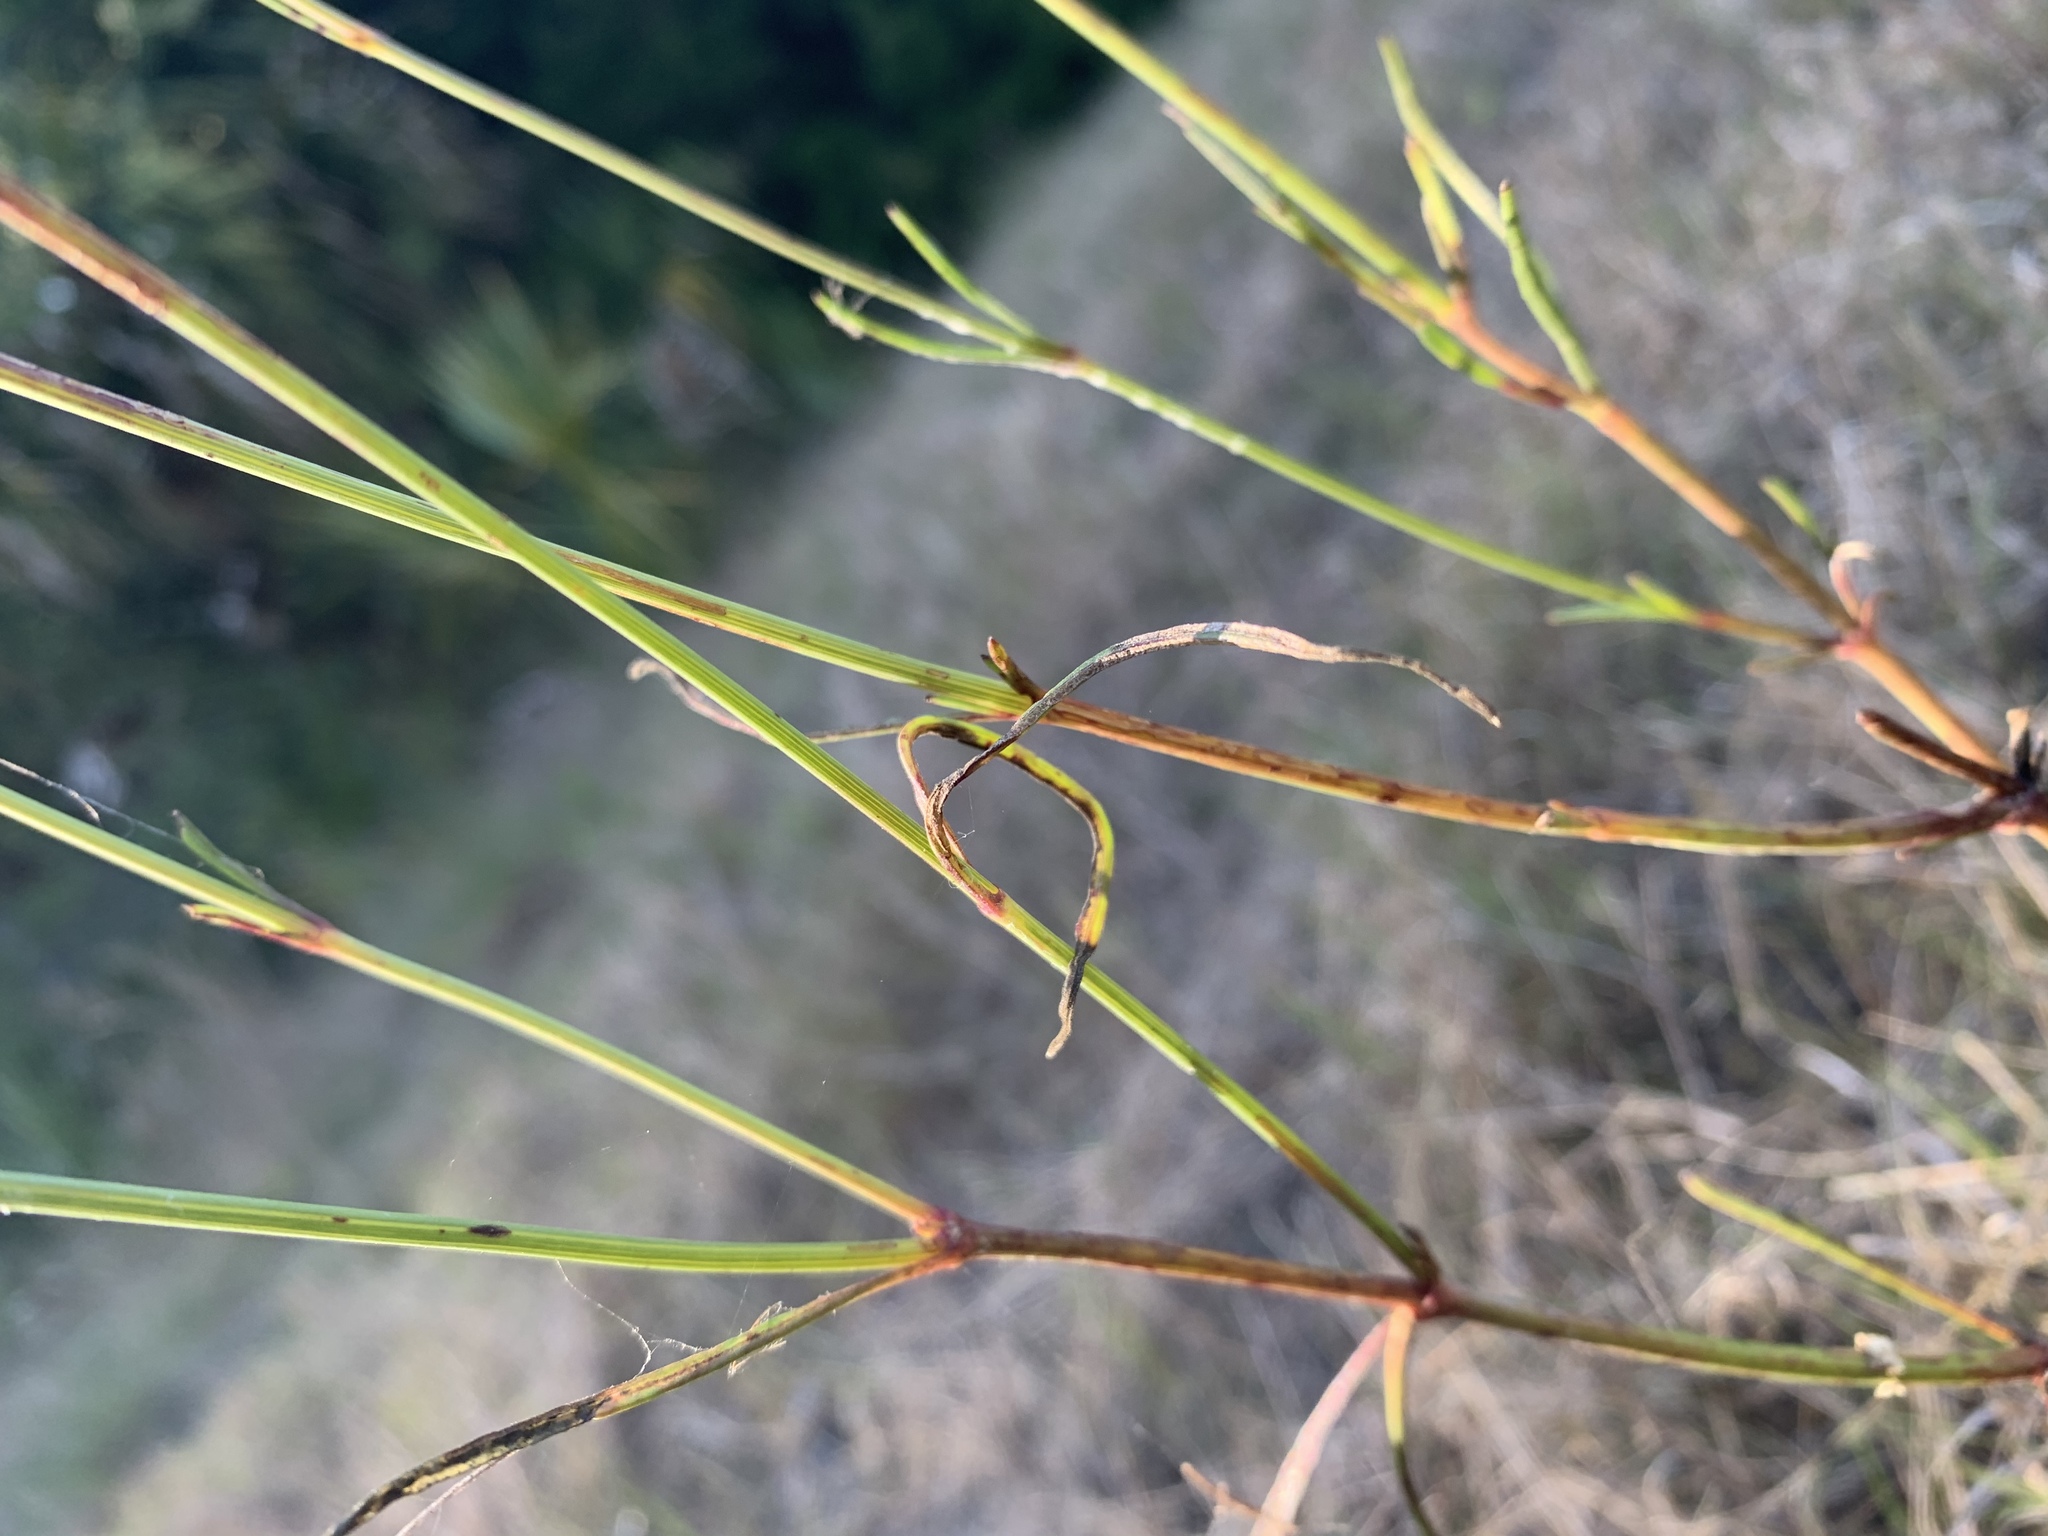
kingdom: Plantae
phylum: Tracheophyta
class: Magnoliopsida
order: Asterales
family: Asteraceae
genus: Coreopsis
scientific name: Coreopsis leavenworthii
